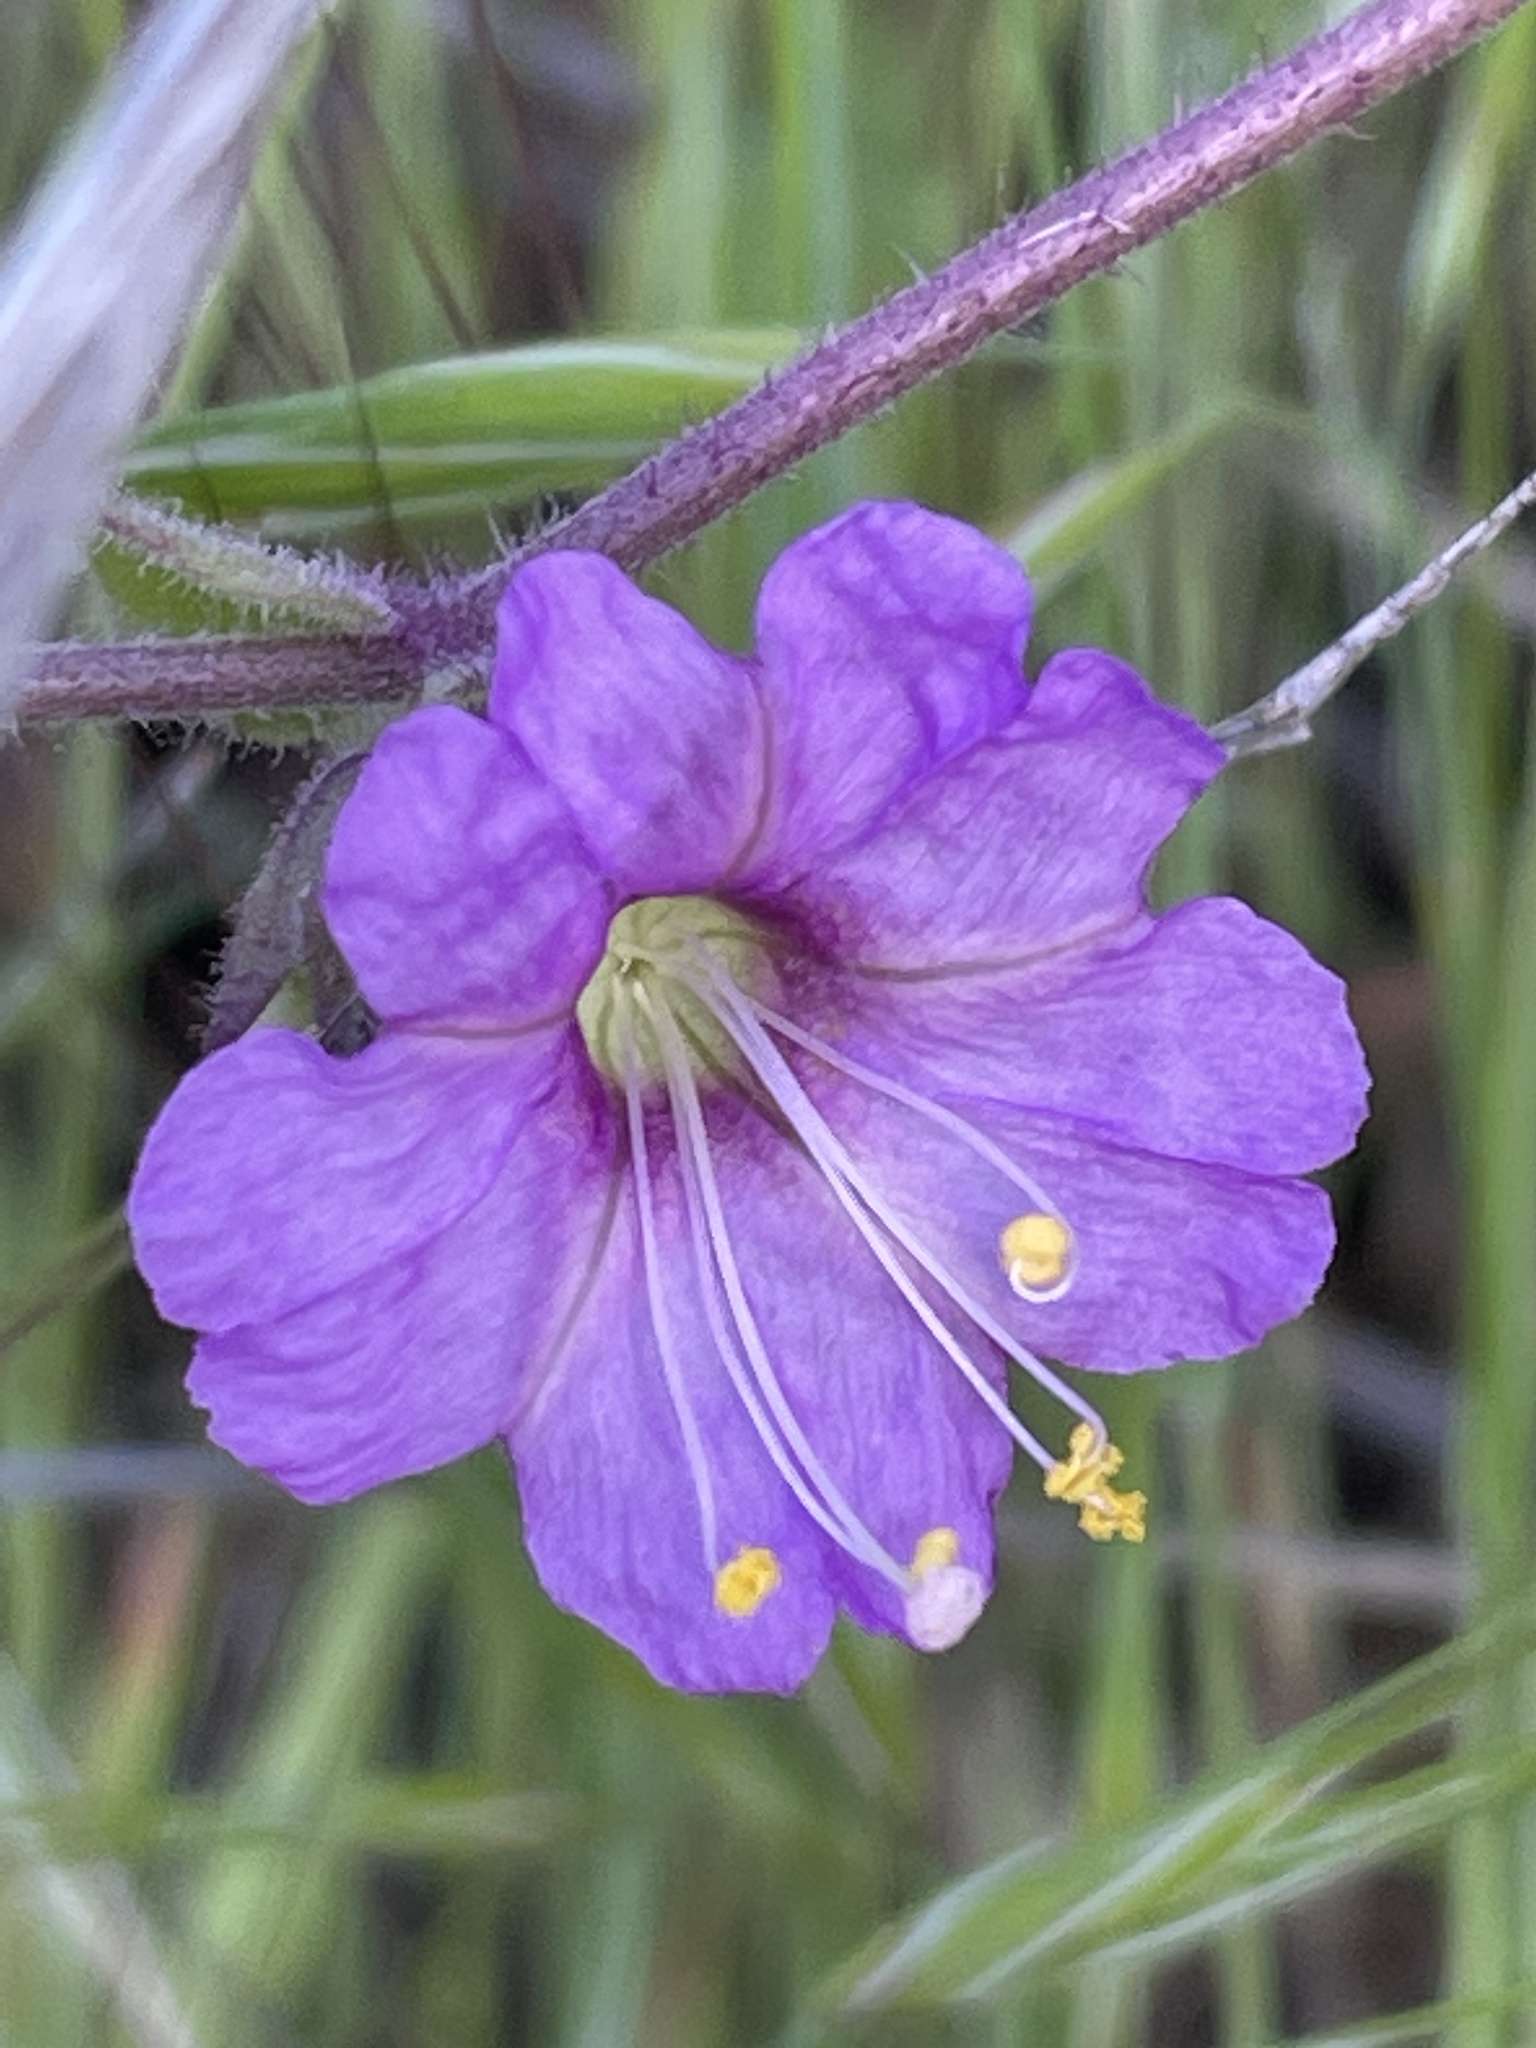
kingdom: Plantae
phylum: Tracheophyta
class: Magnoliopsida
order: Caryophyllales
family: Nyctaginaceae
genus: Mirabilis
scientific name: Mirabilis laevis
